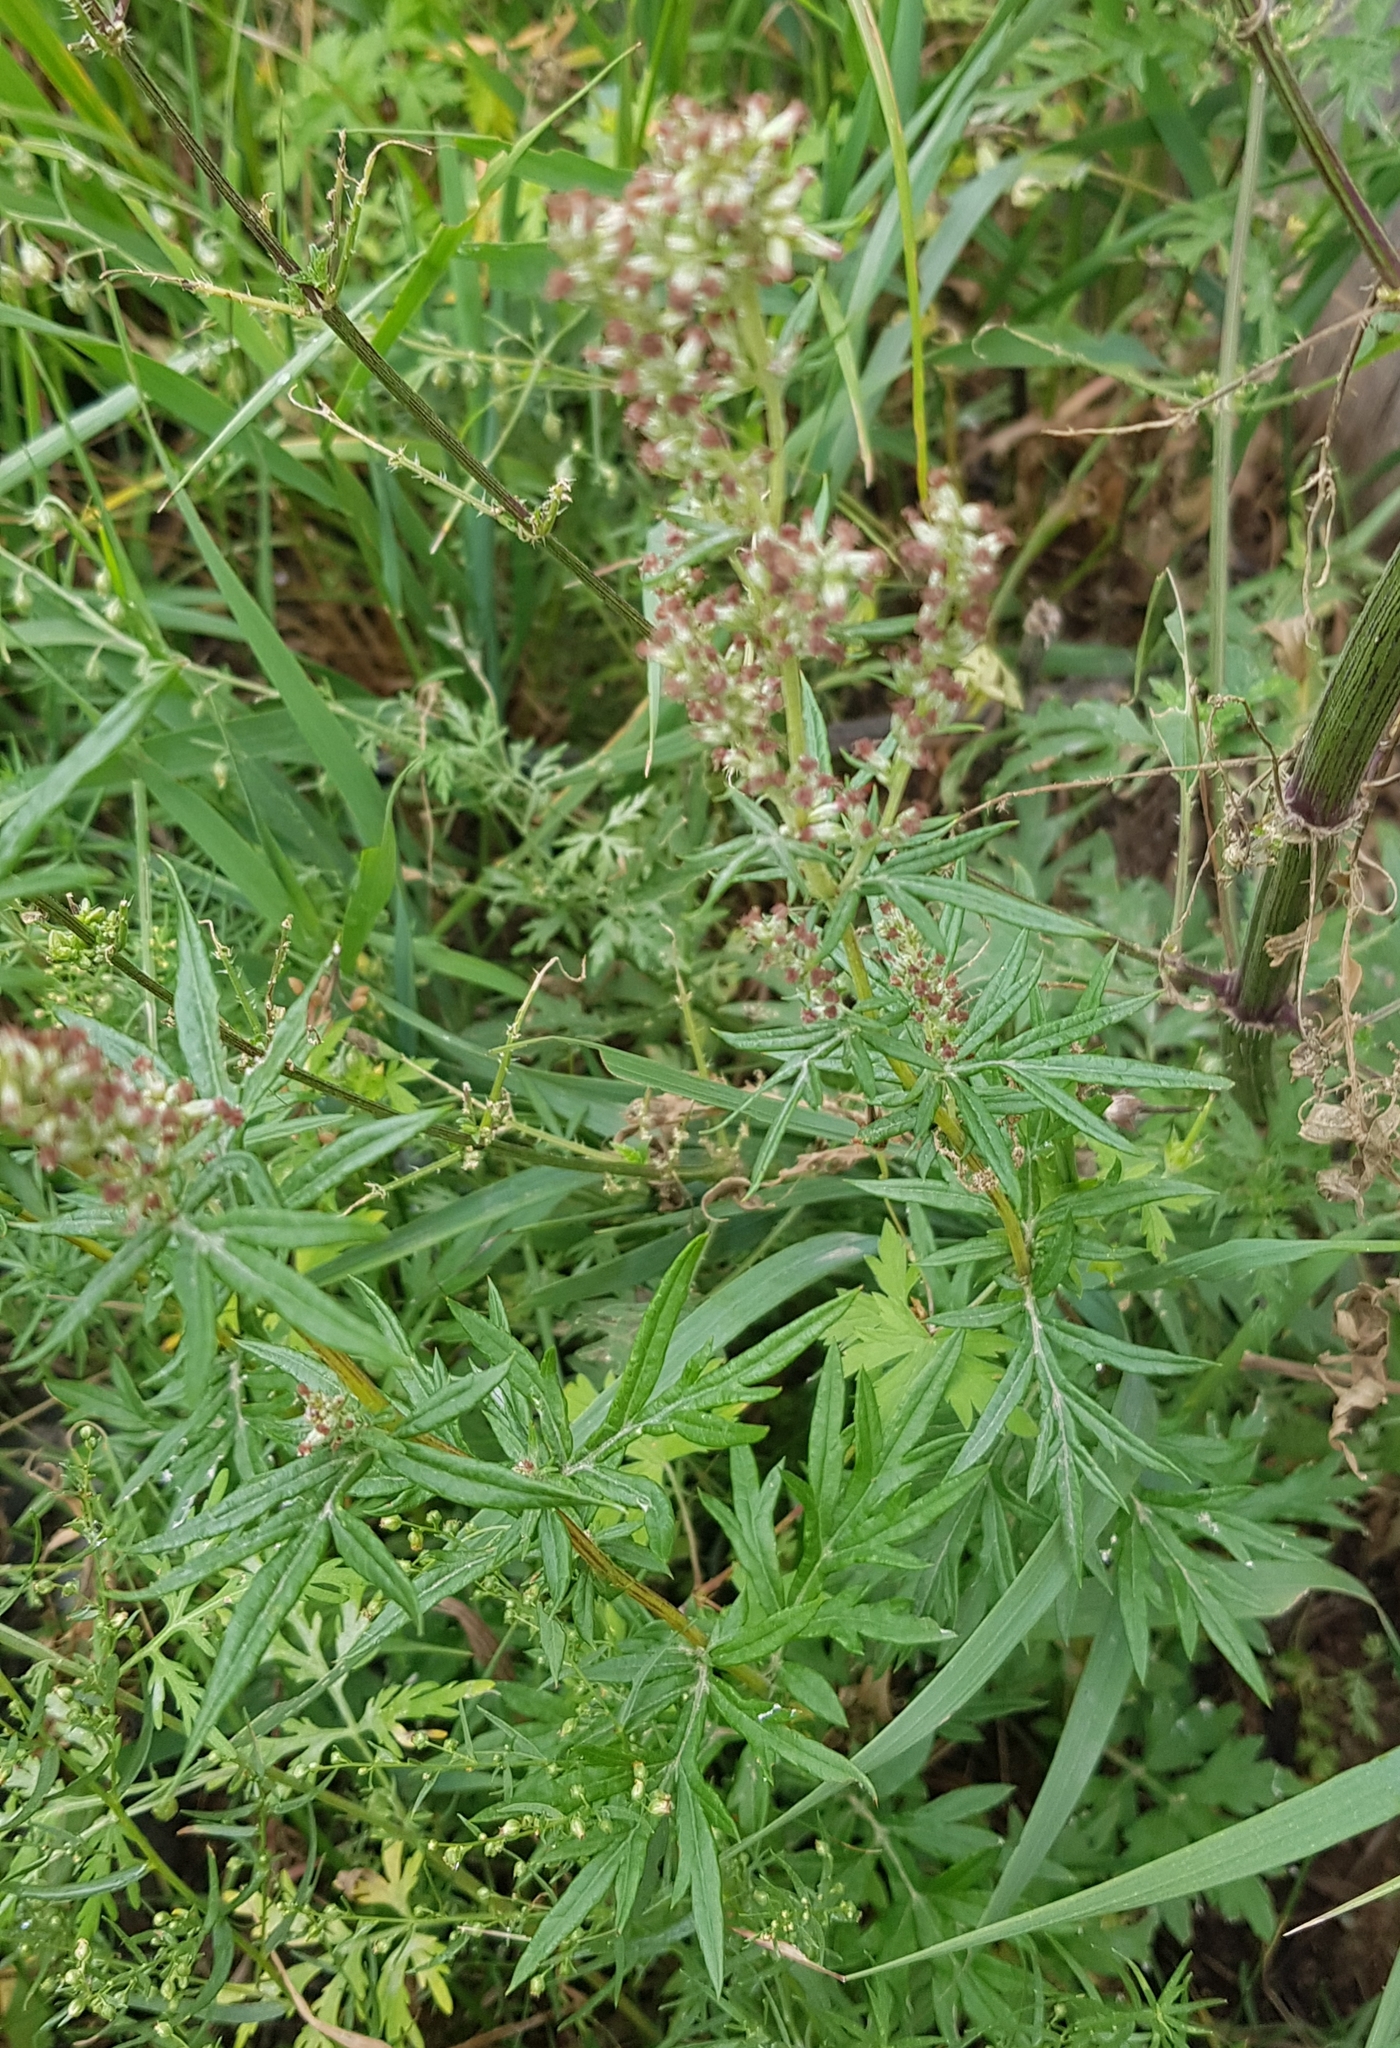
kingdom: Plantae
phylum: Tracheophyta
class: Magnoliopsida
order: Asterales
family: Asteraceae
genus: Artemisia
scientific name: Artemisia vulgaris
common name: Mugwort
